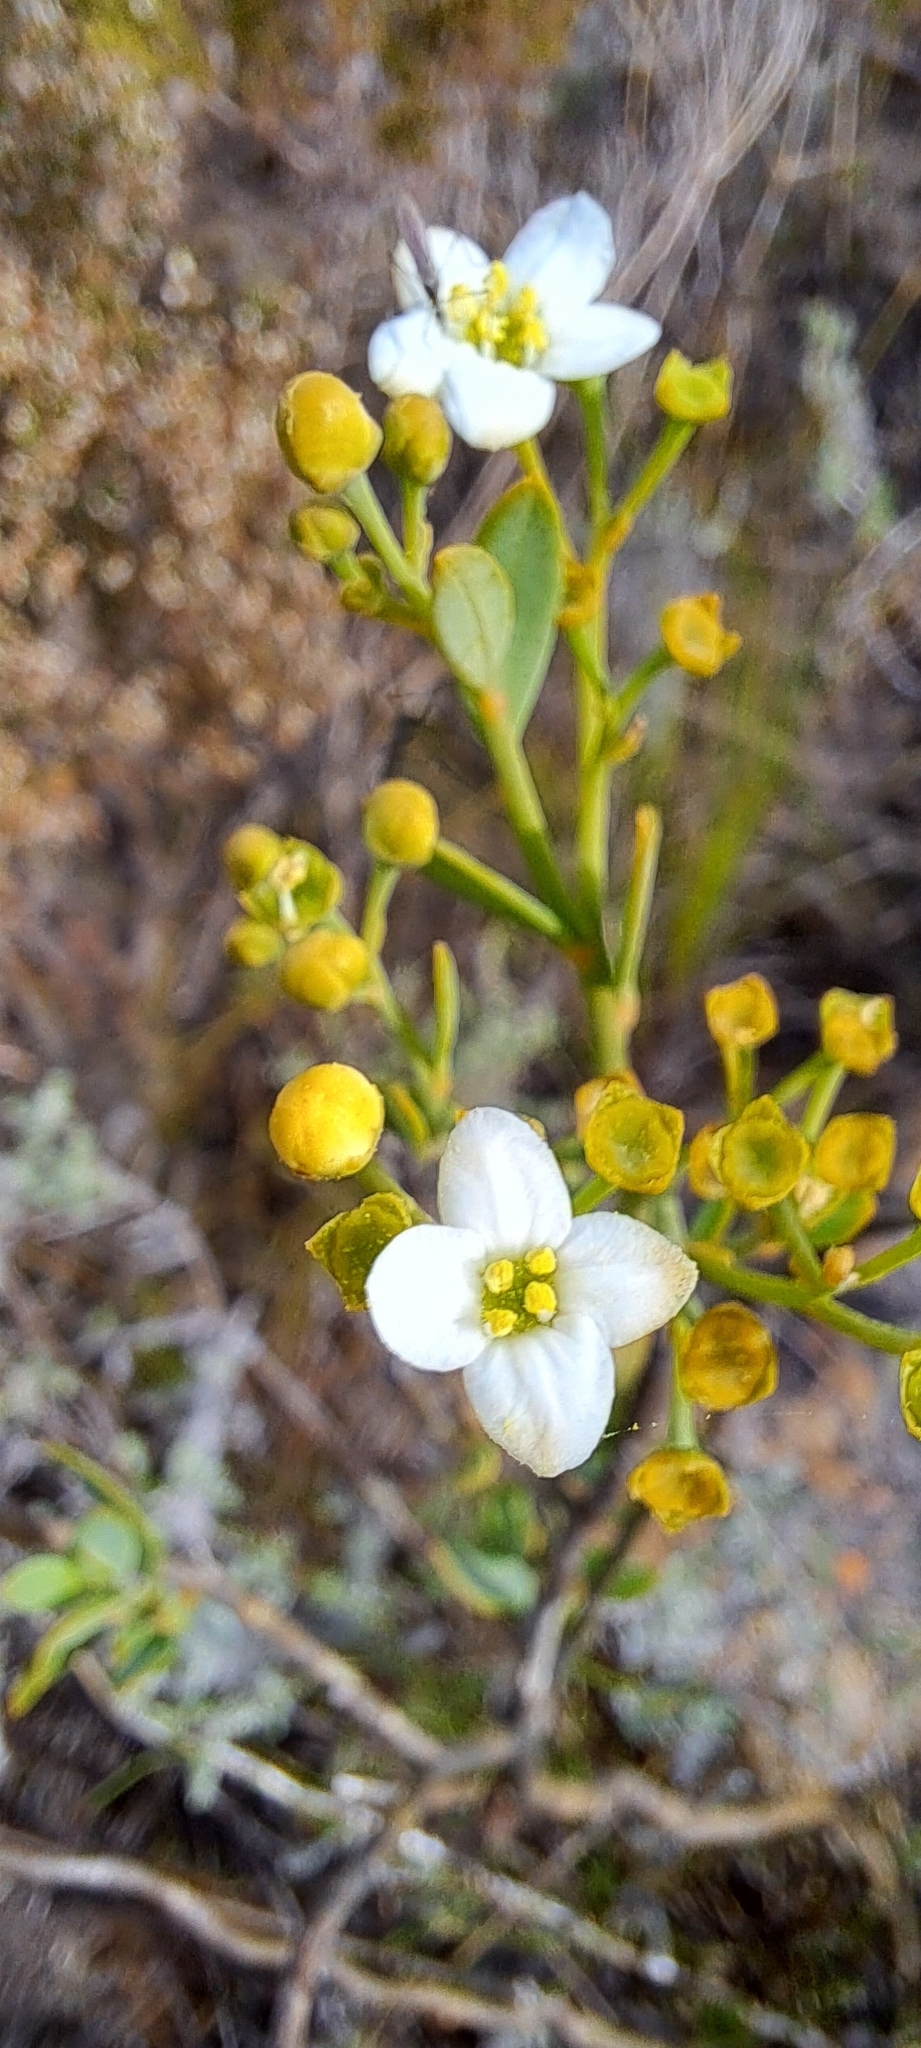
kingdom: Plantae
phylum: Tracheophyta
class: Magnoliopsida
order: Solanales
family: Montiniaceae
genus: Montinia
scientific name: Montinia caryophyllacea
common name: Wild clove-bush
